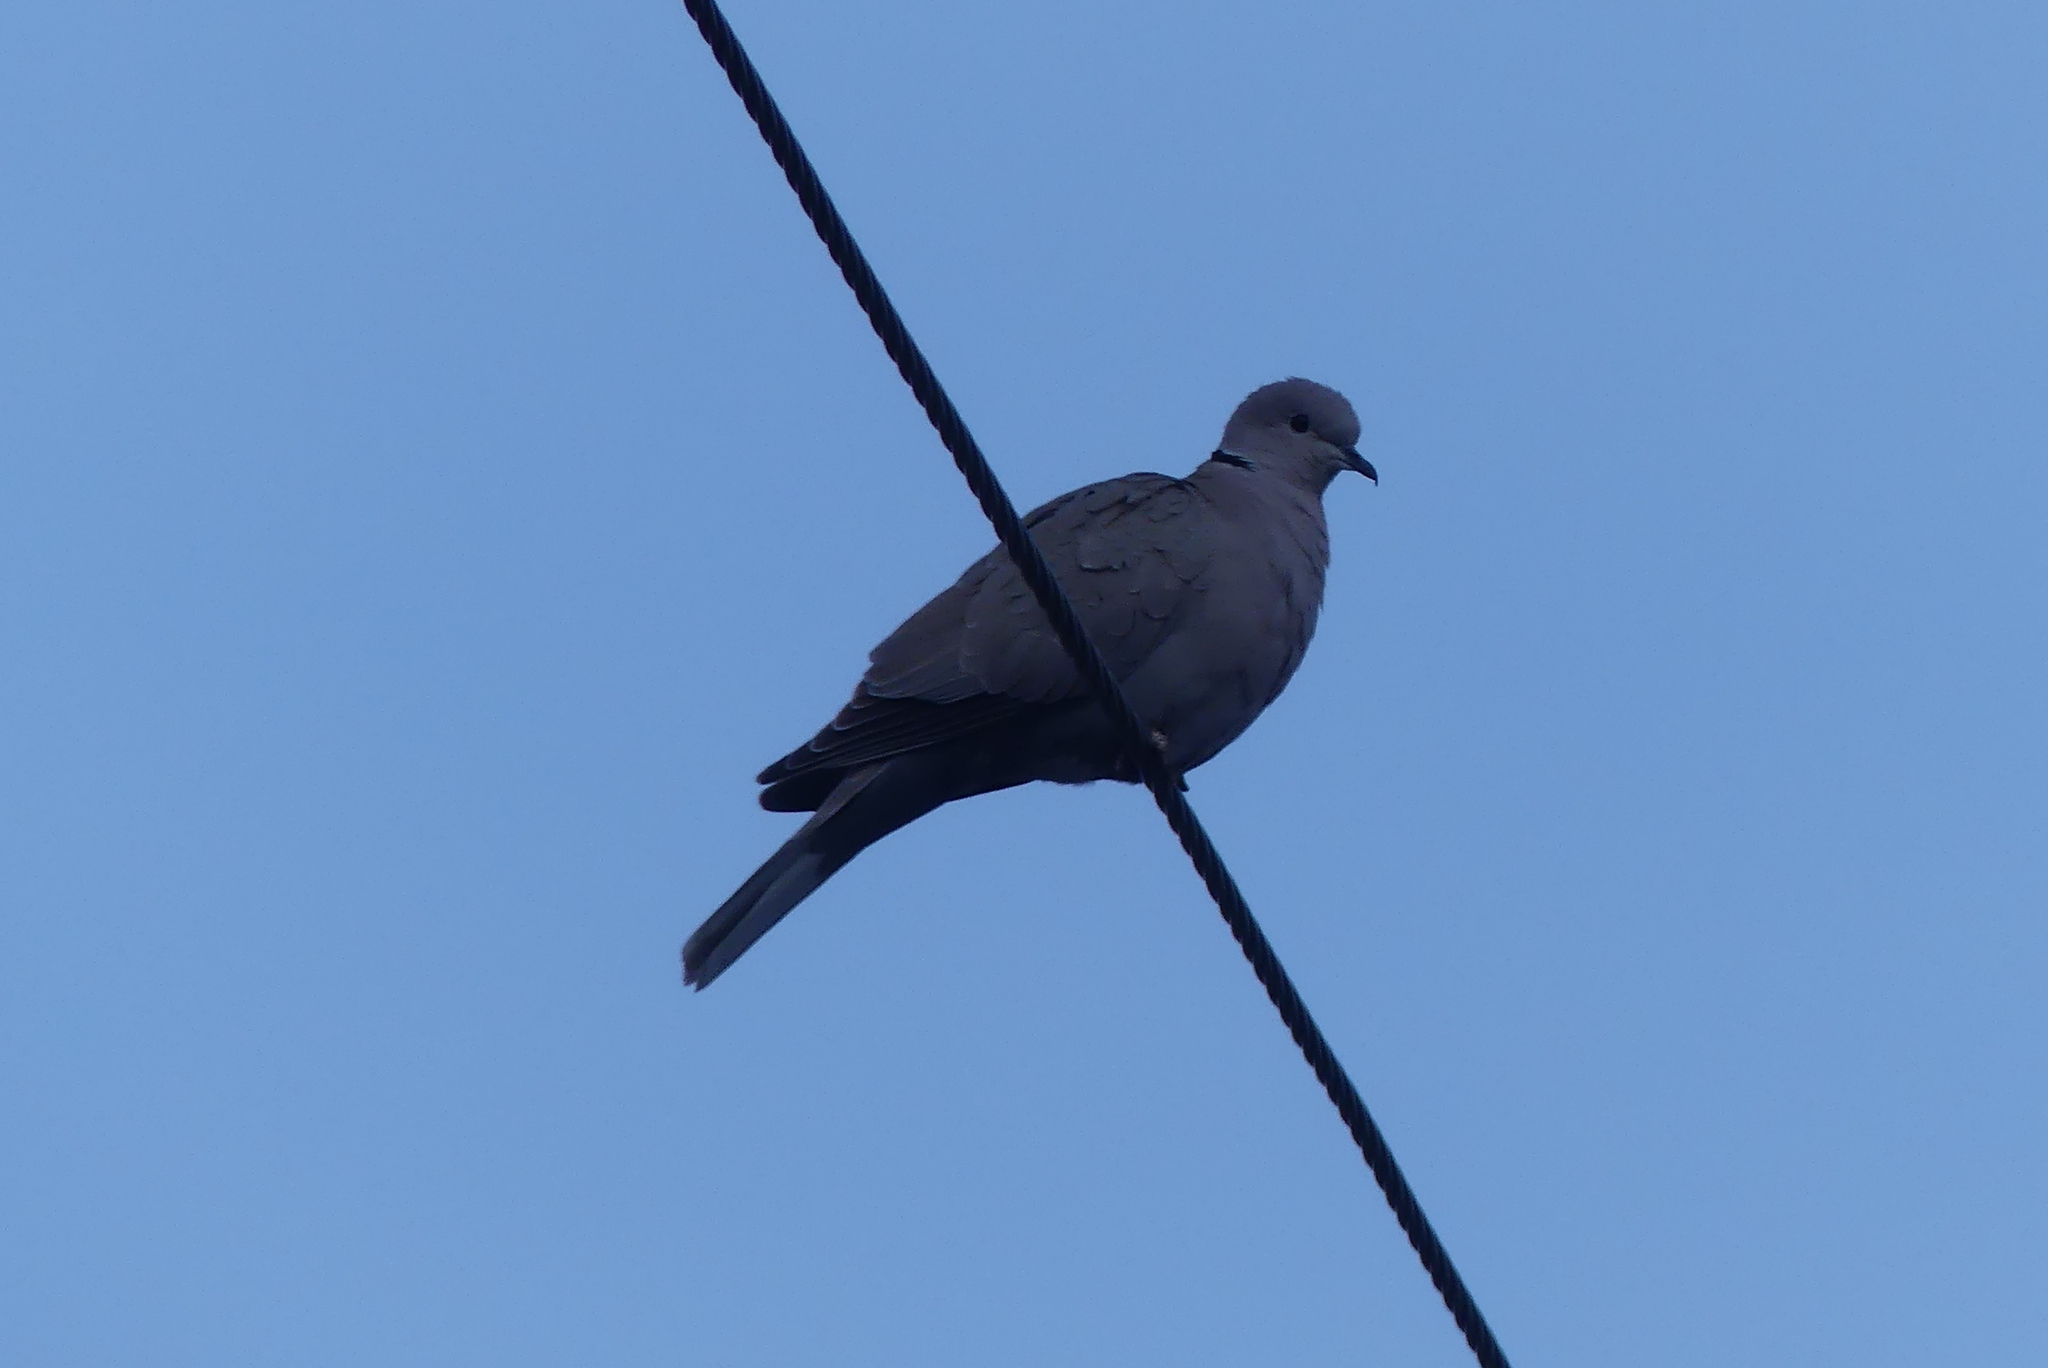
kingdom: Animalia
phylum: Chordata
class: Aves
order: Columbiformes
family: Columbidae
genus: Streptopelia
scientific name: Streptopelia decaocto
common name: Eurasian collared dove
